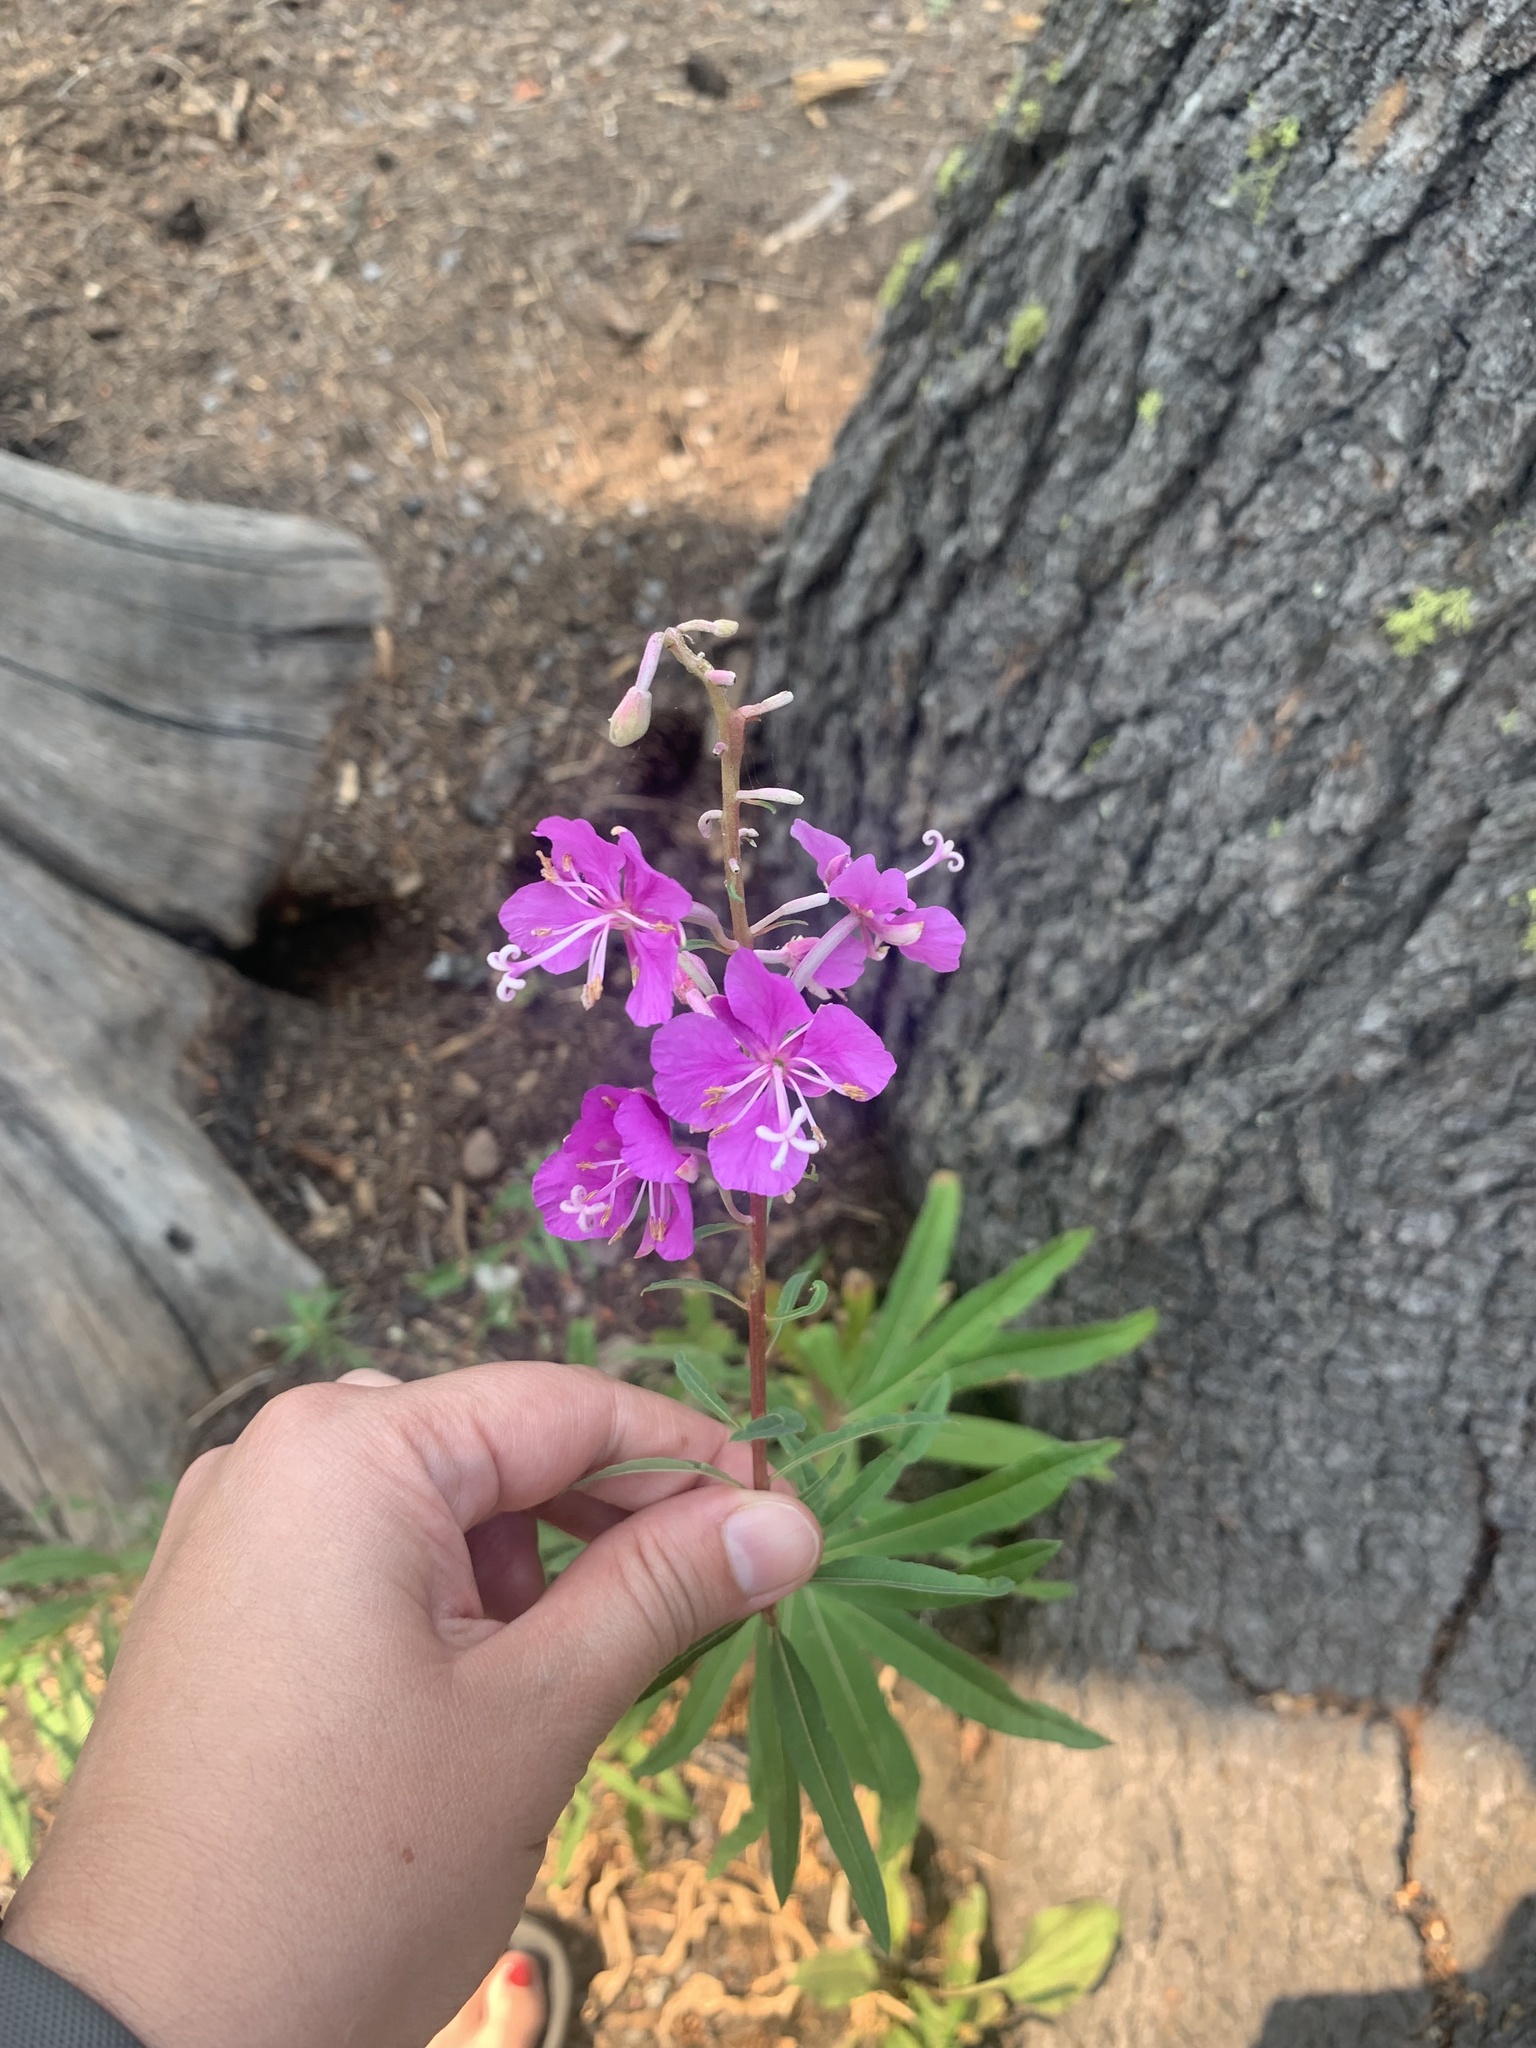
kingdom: Plantae
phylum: Tracheophyta
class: Magnoliopsida
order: Myrtales
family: Onagraceae
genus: Chamaenerion
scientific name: Chamaenerion angustifolium
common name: Fireweed
